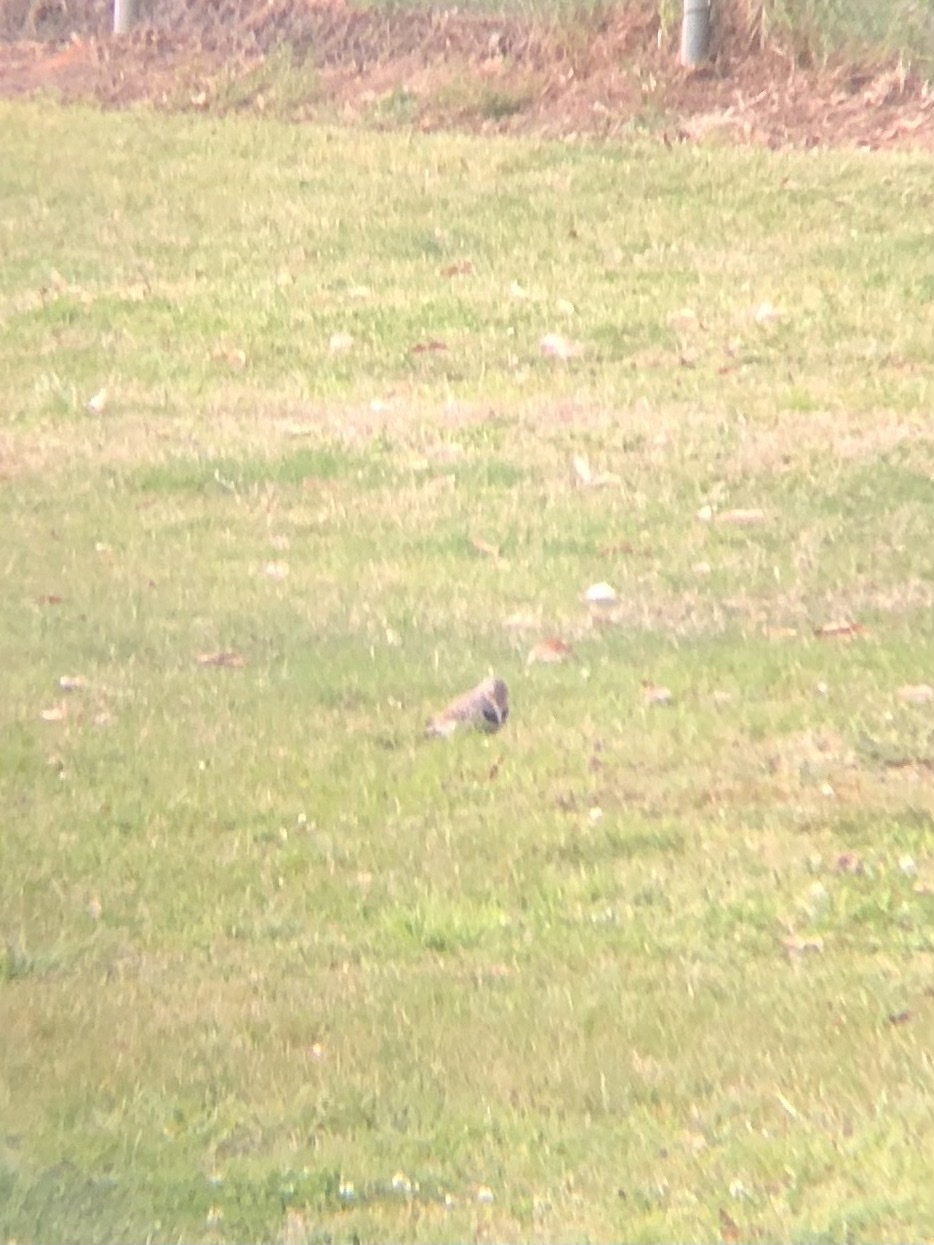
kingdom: Animalia
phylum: Chordata
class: Aves
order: Piciformes
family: Picidae
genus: Colaptes
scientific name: Colaptes auratus
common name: Northern flicker
